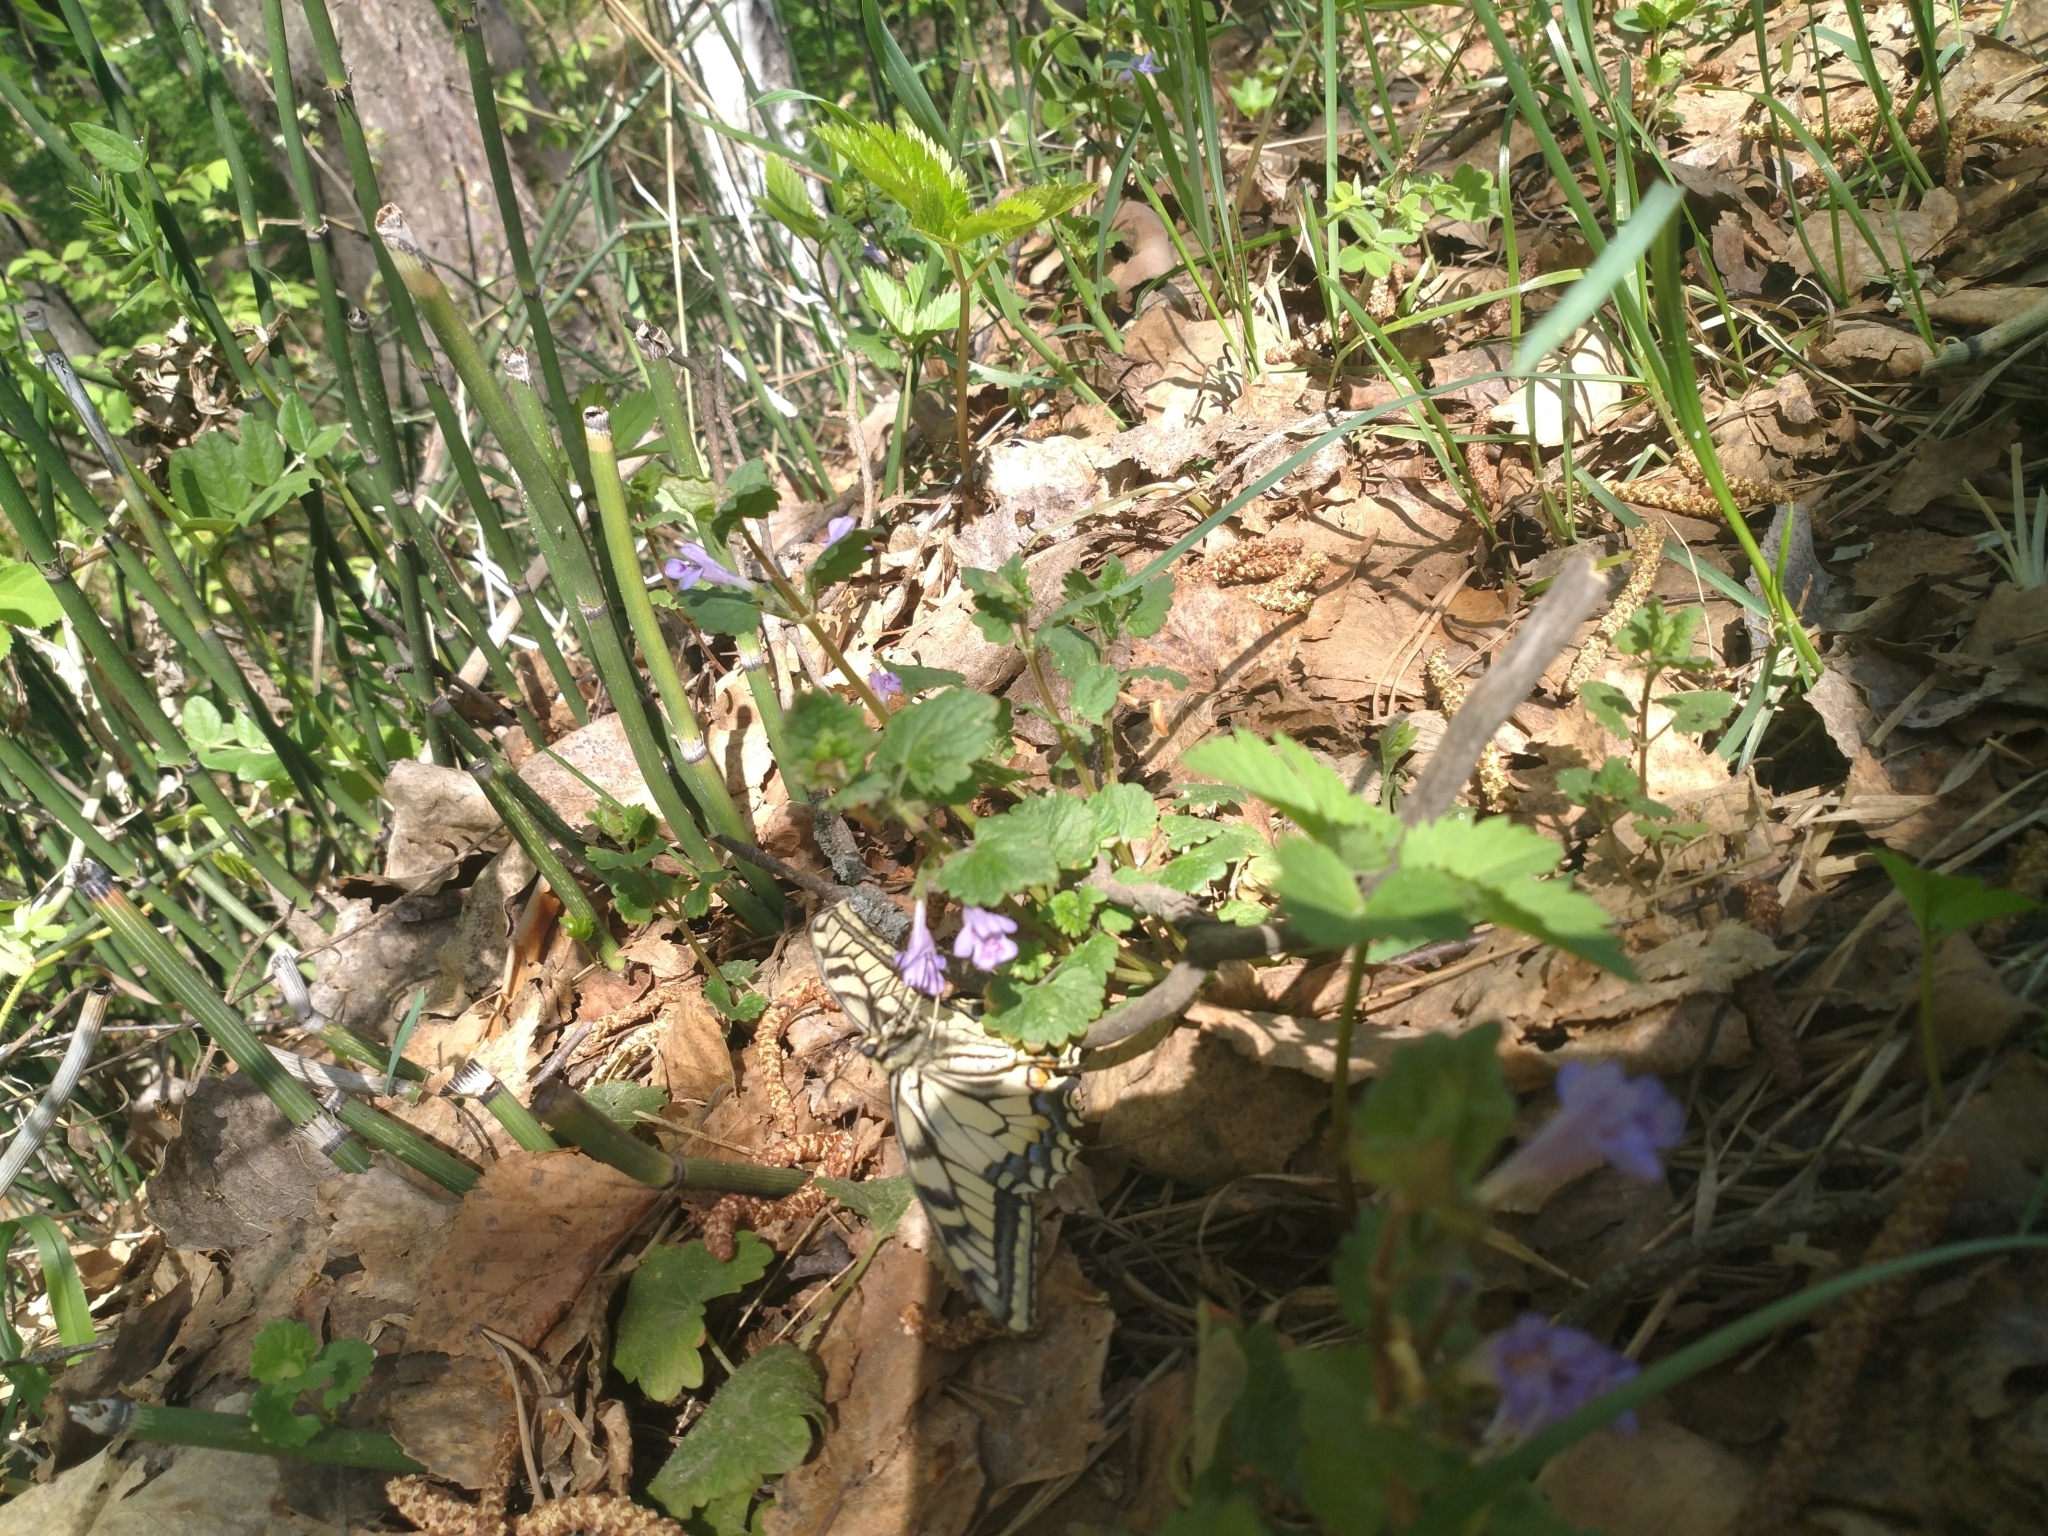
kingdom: Animalia
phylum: Arthropoda
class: Insecta
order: Lepidoptera
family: Papilionidae
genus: Papilio
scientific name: Papilio machaon
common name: Swallowtail
